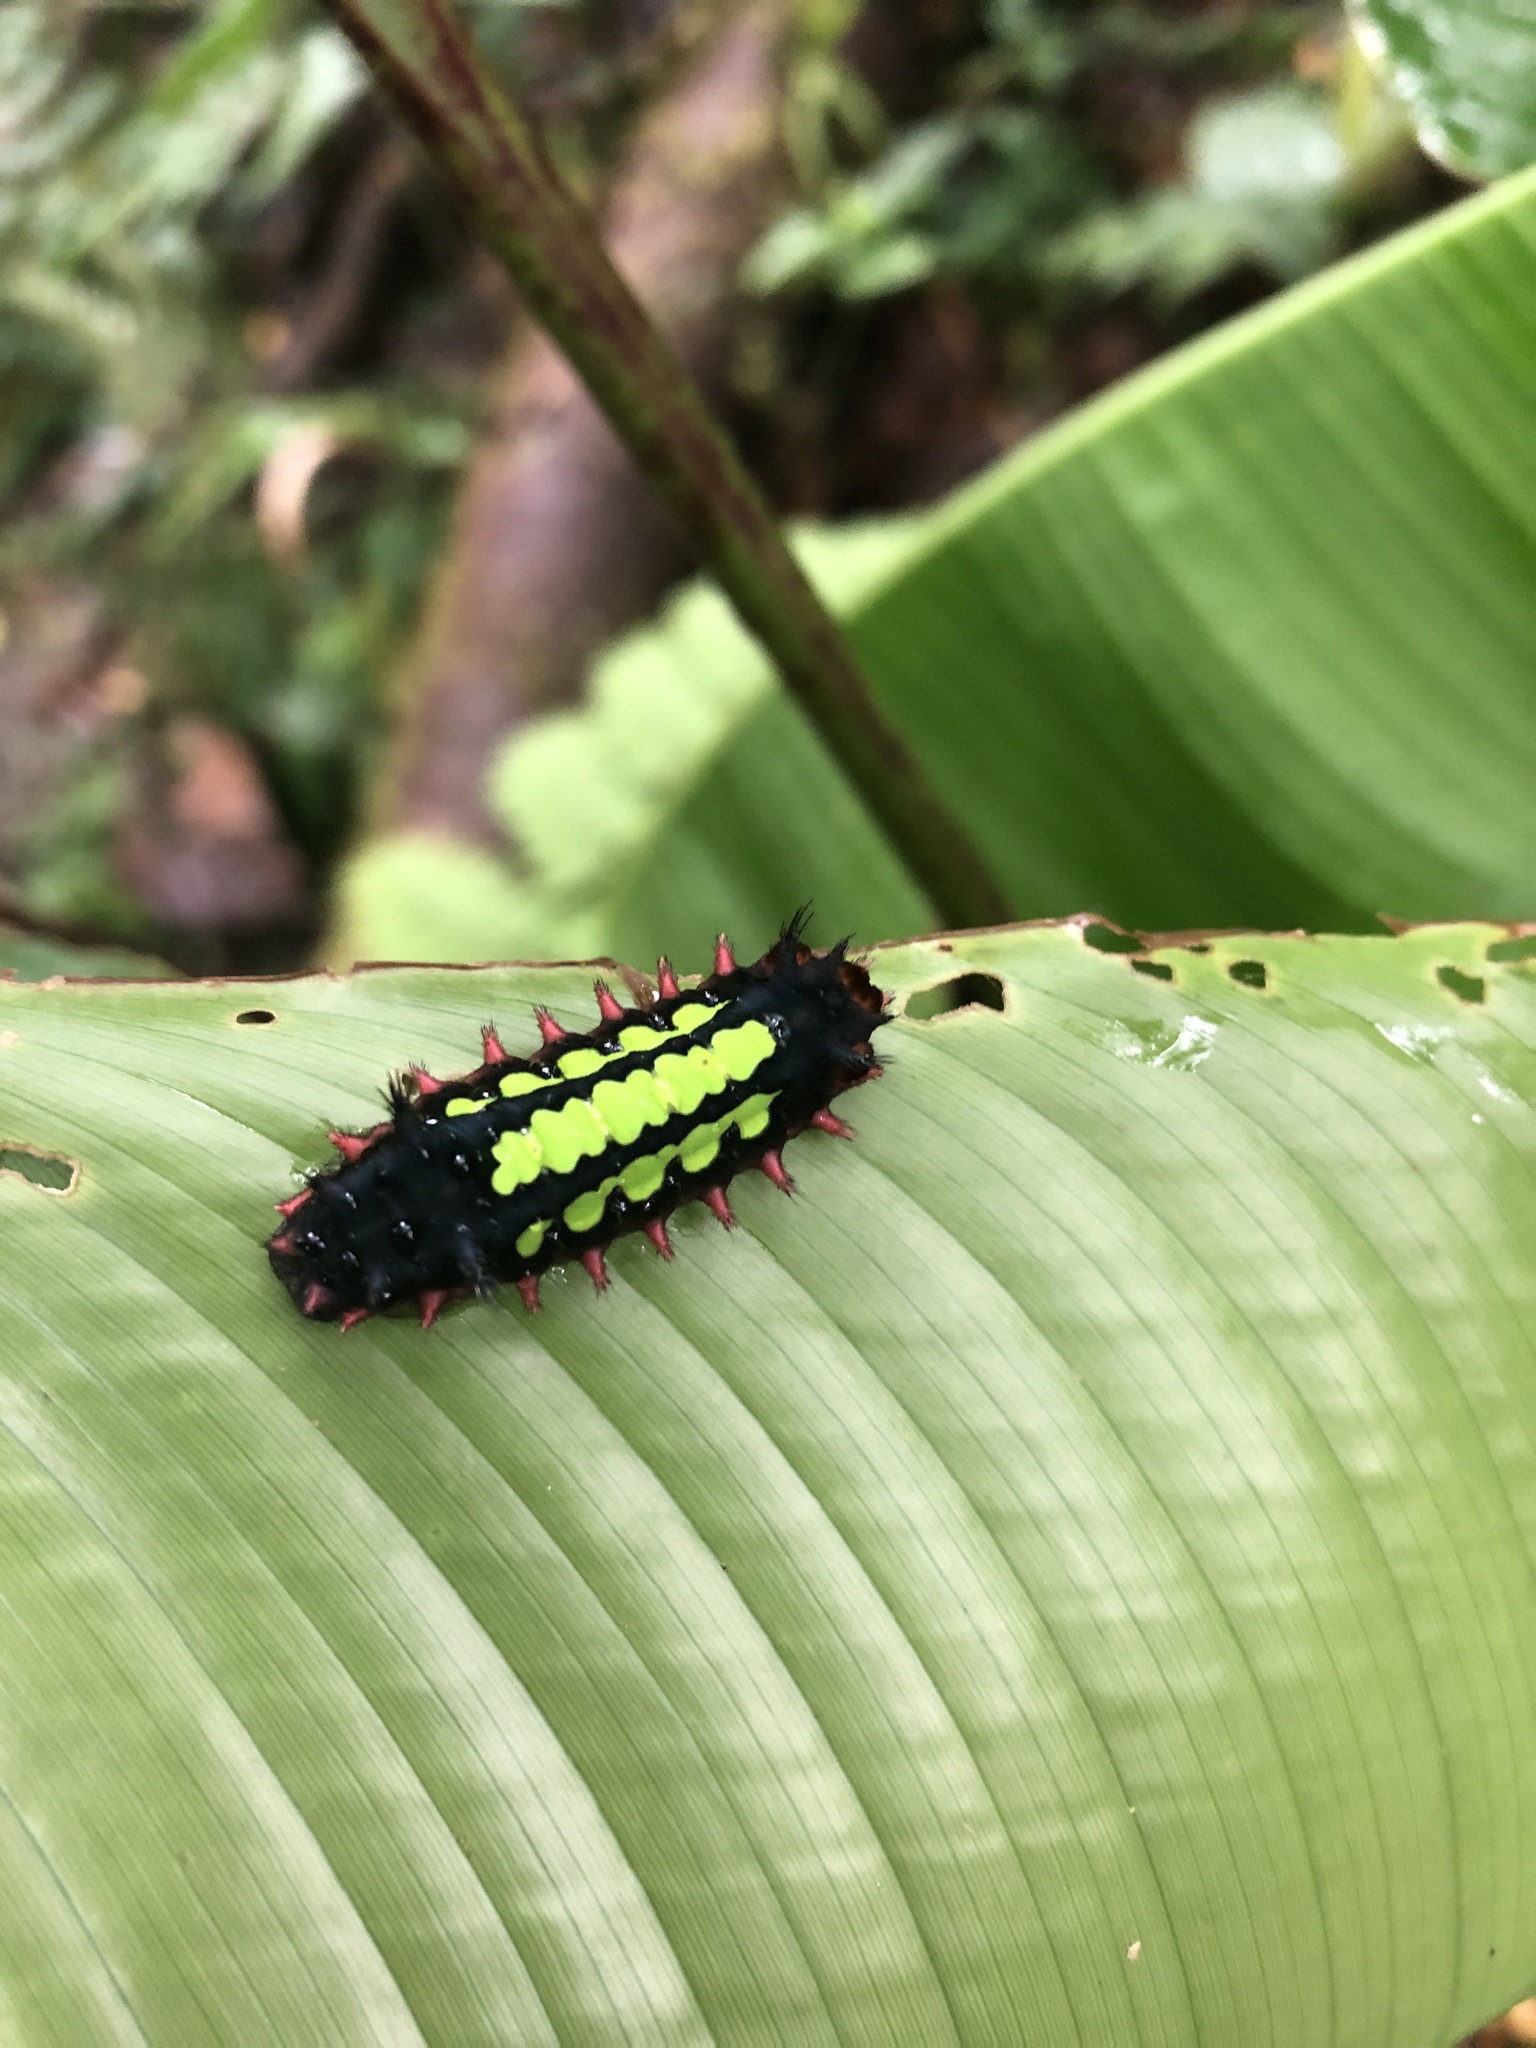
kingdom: Animalia
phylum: Arthropoda
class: Insecta
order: Lepidoptera
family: Limacodidae
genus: Acharia
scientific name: Acharia ophelians
